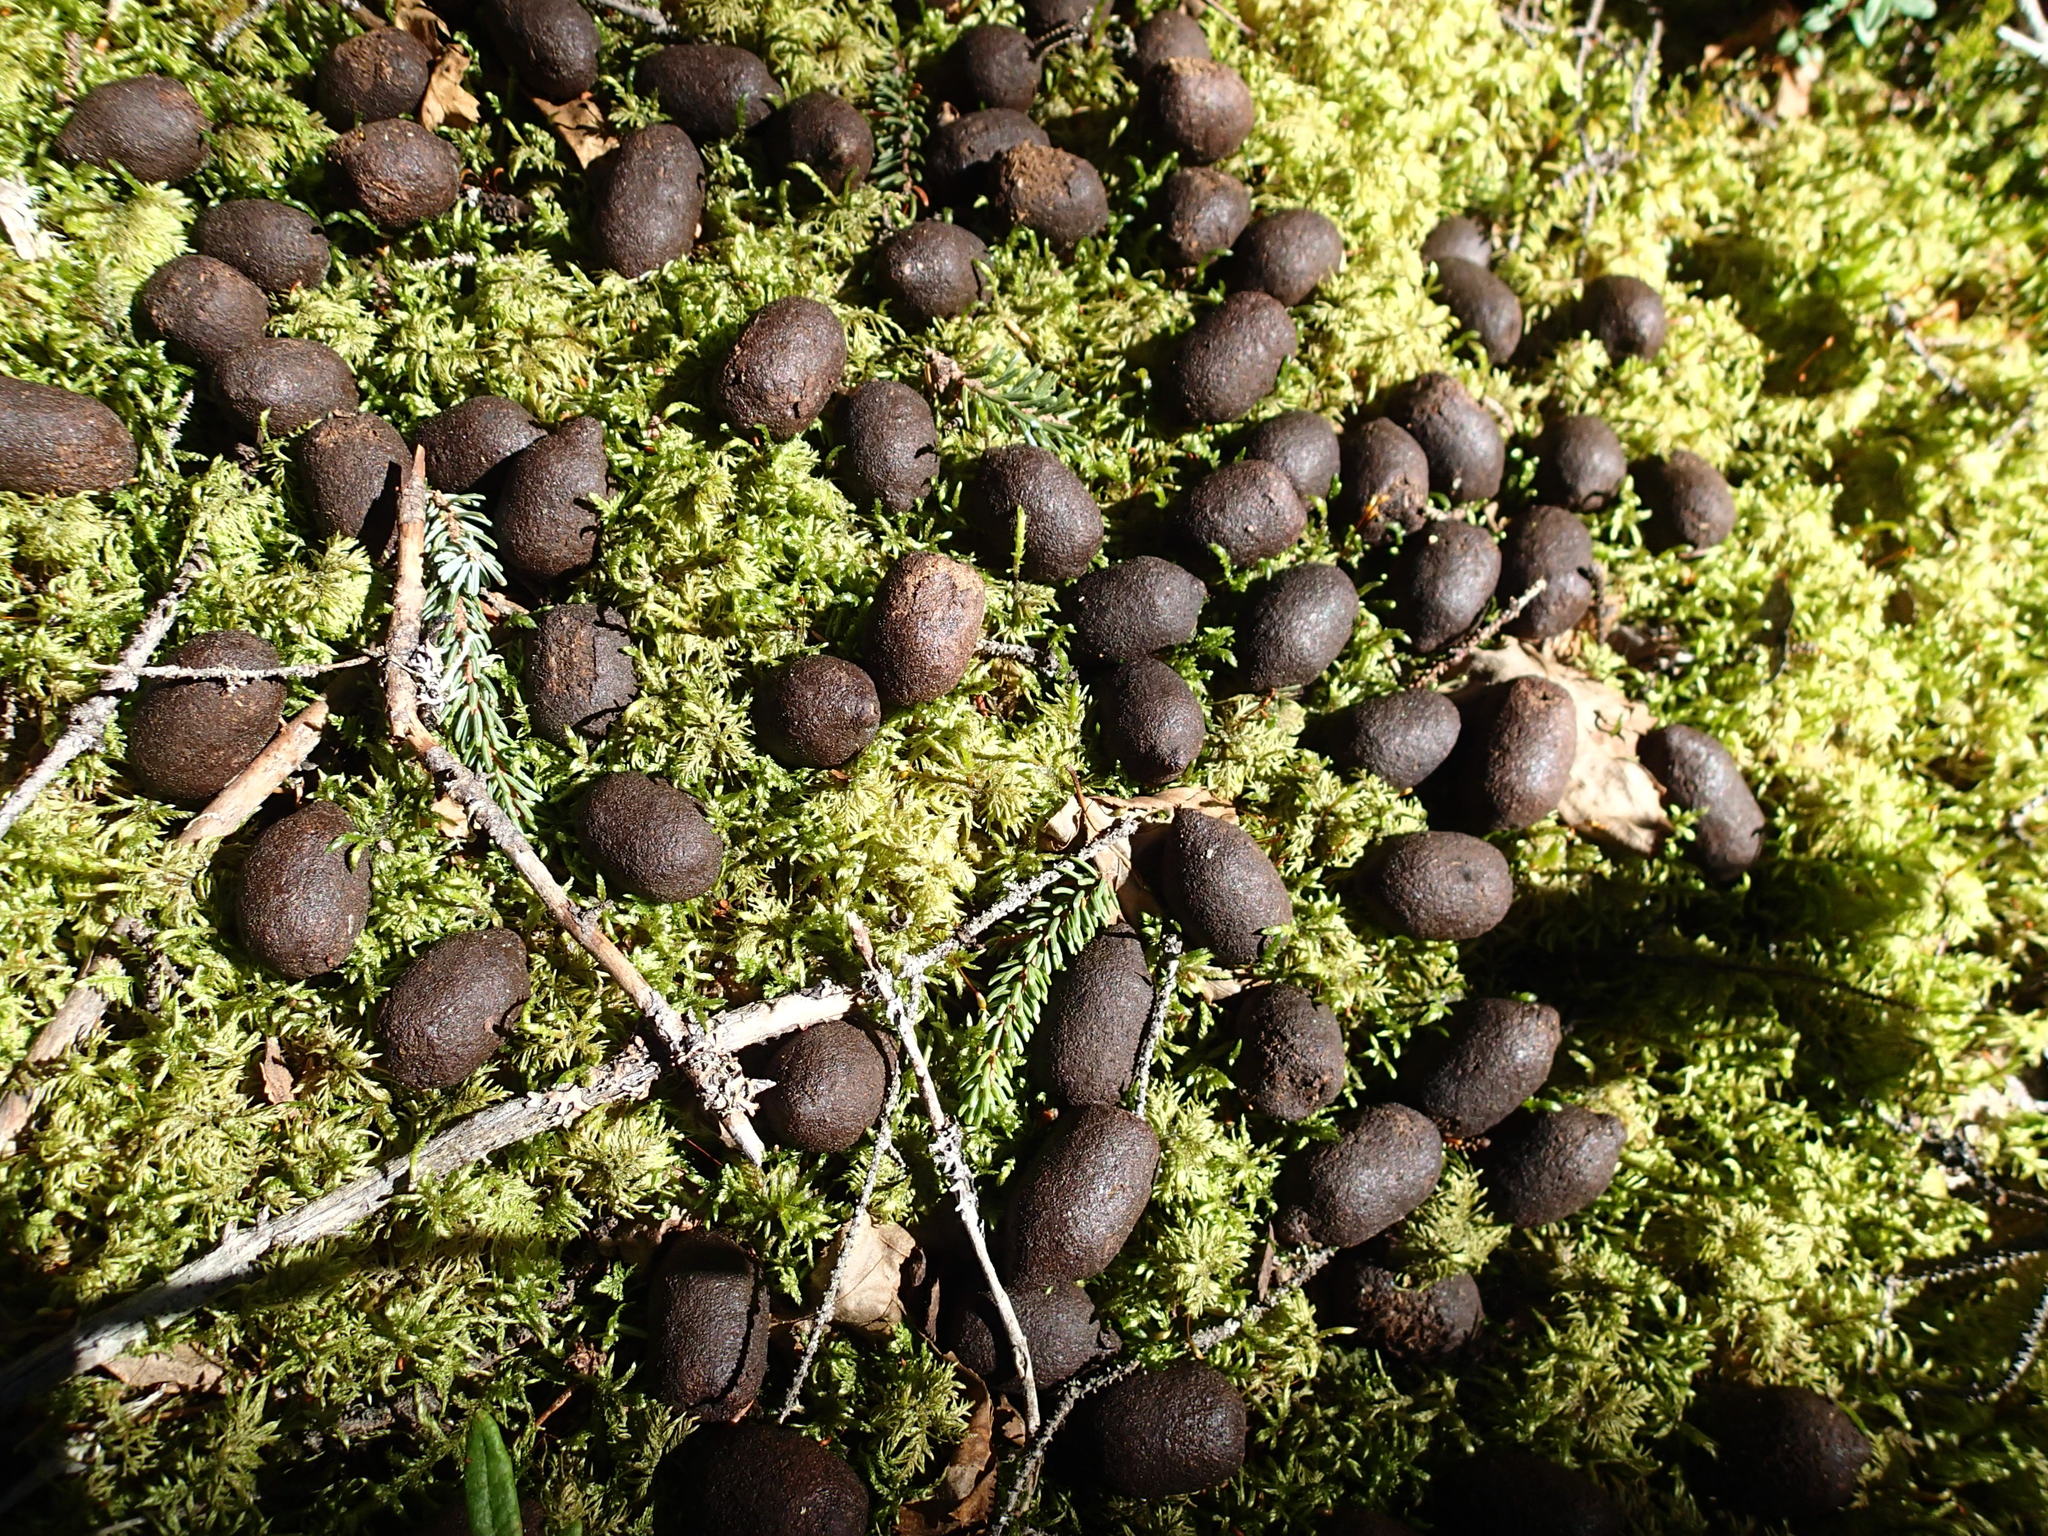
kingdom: Animalia
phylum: Chordata
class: Mammalia
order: Artiodactyla
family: Cervidae
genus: Alces
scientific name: Alces alces
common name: Moose
